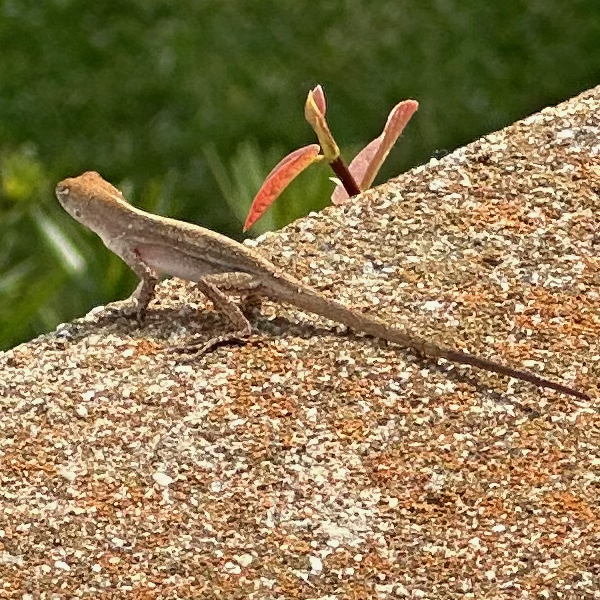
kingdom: Animalia
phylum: Chordata
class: Squamata
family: Dactyloidae
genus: Anolis
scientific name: Anolis sagrei
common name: Brown anole
